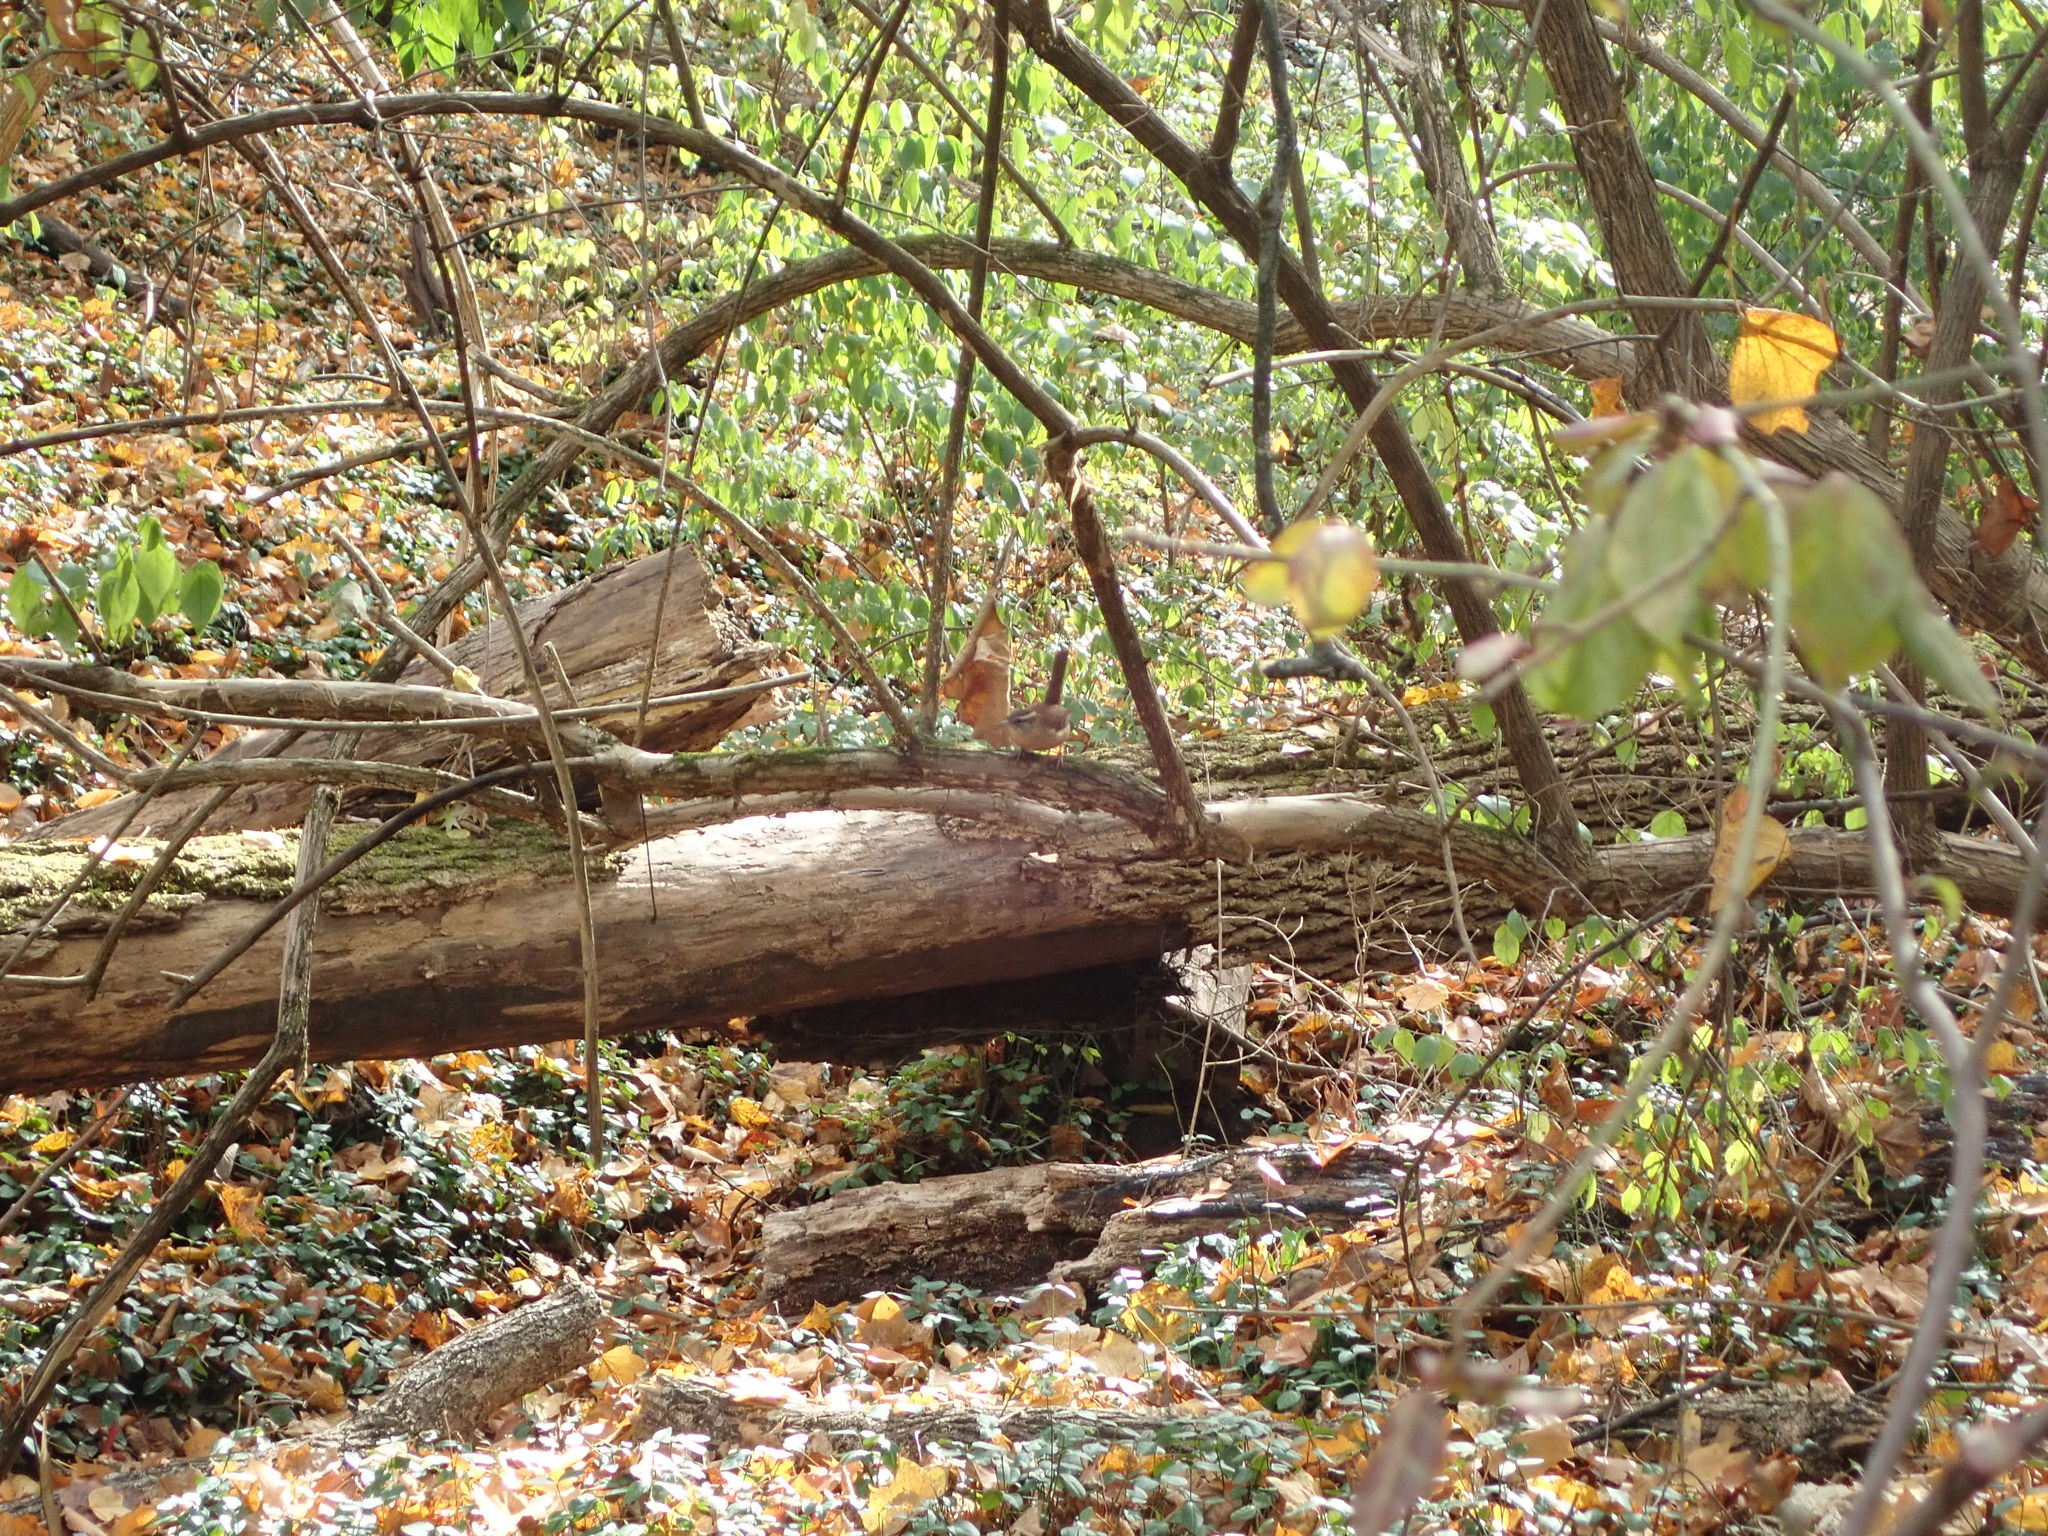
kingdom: Animalia
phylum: Chordata
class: Aves
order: Passeriformes
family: Troglodytidae
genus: Thryothorus
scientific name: Thryothorus ludovicianus
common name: Carolina wren
